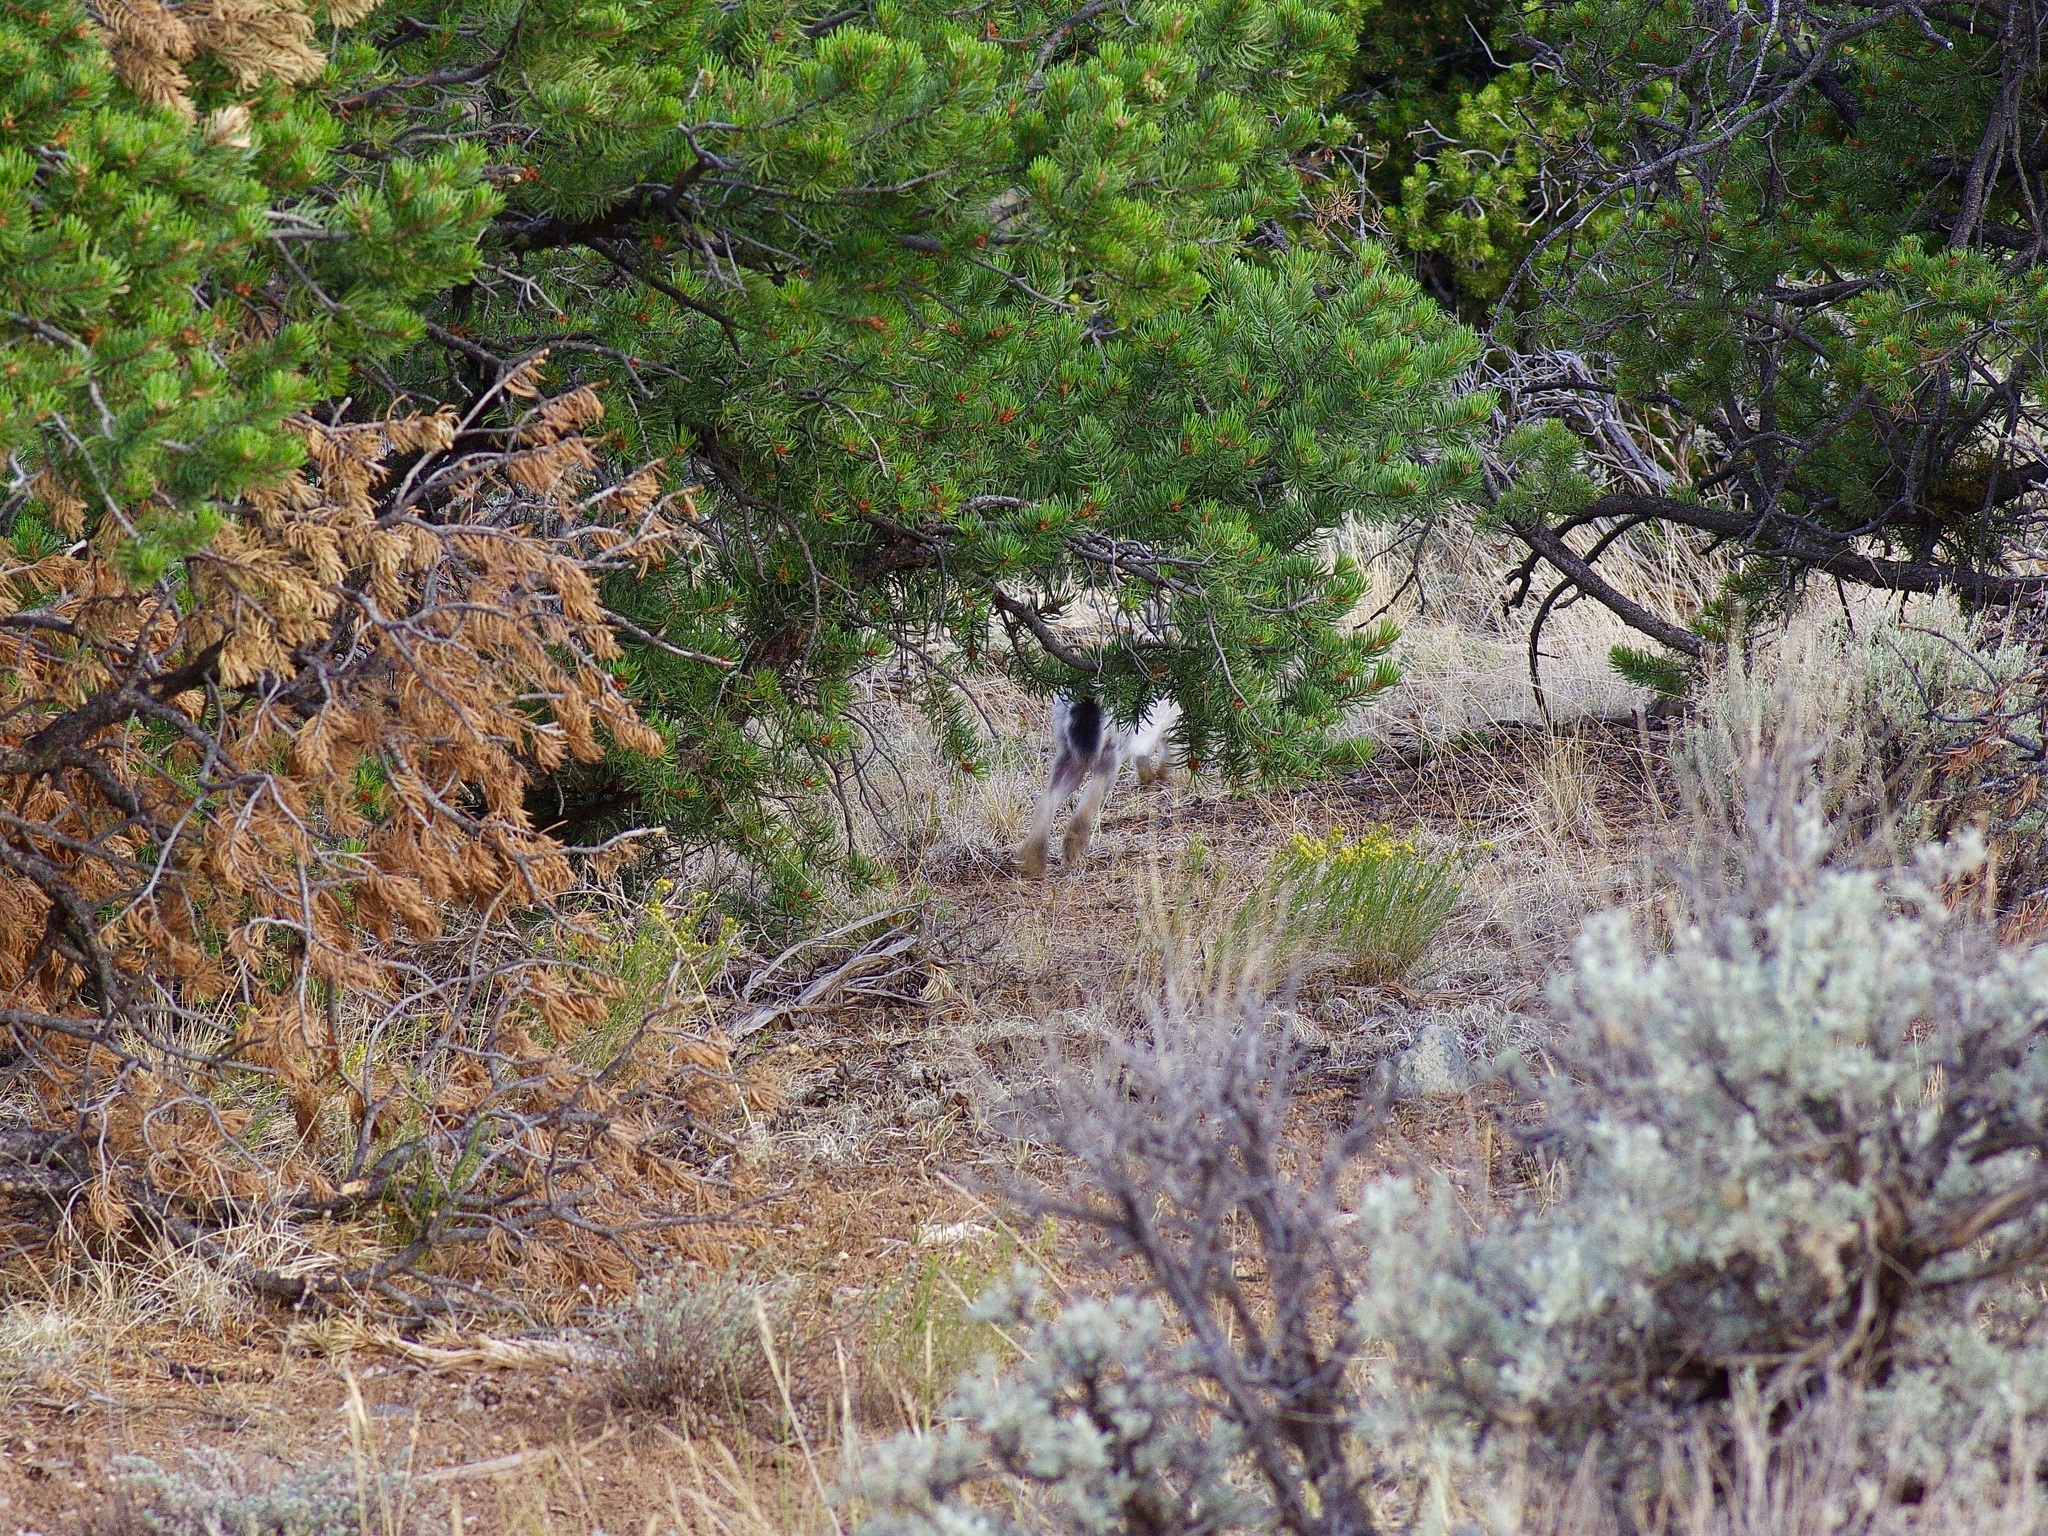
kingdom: Animalia
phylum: Chordata
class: Mammalia
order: Lagomorpha
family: Leporidae
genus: Lepus
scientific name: Lepus californicus
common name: Black-tailed jackrabbit
